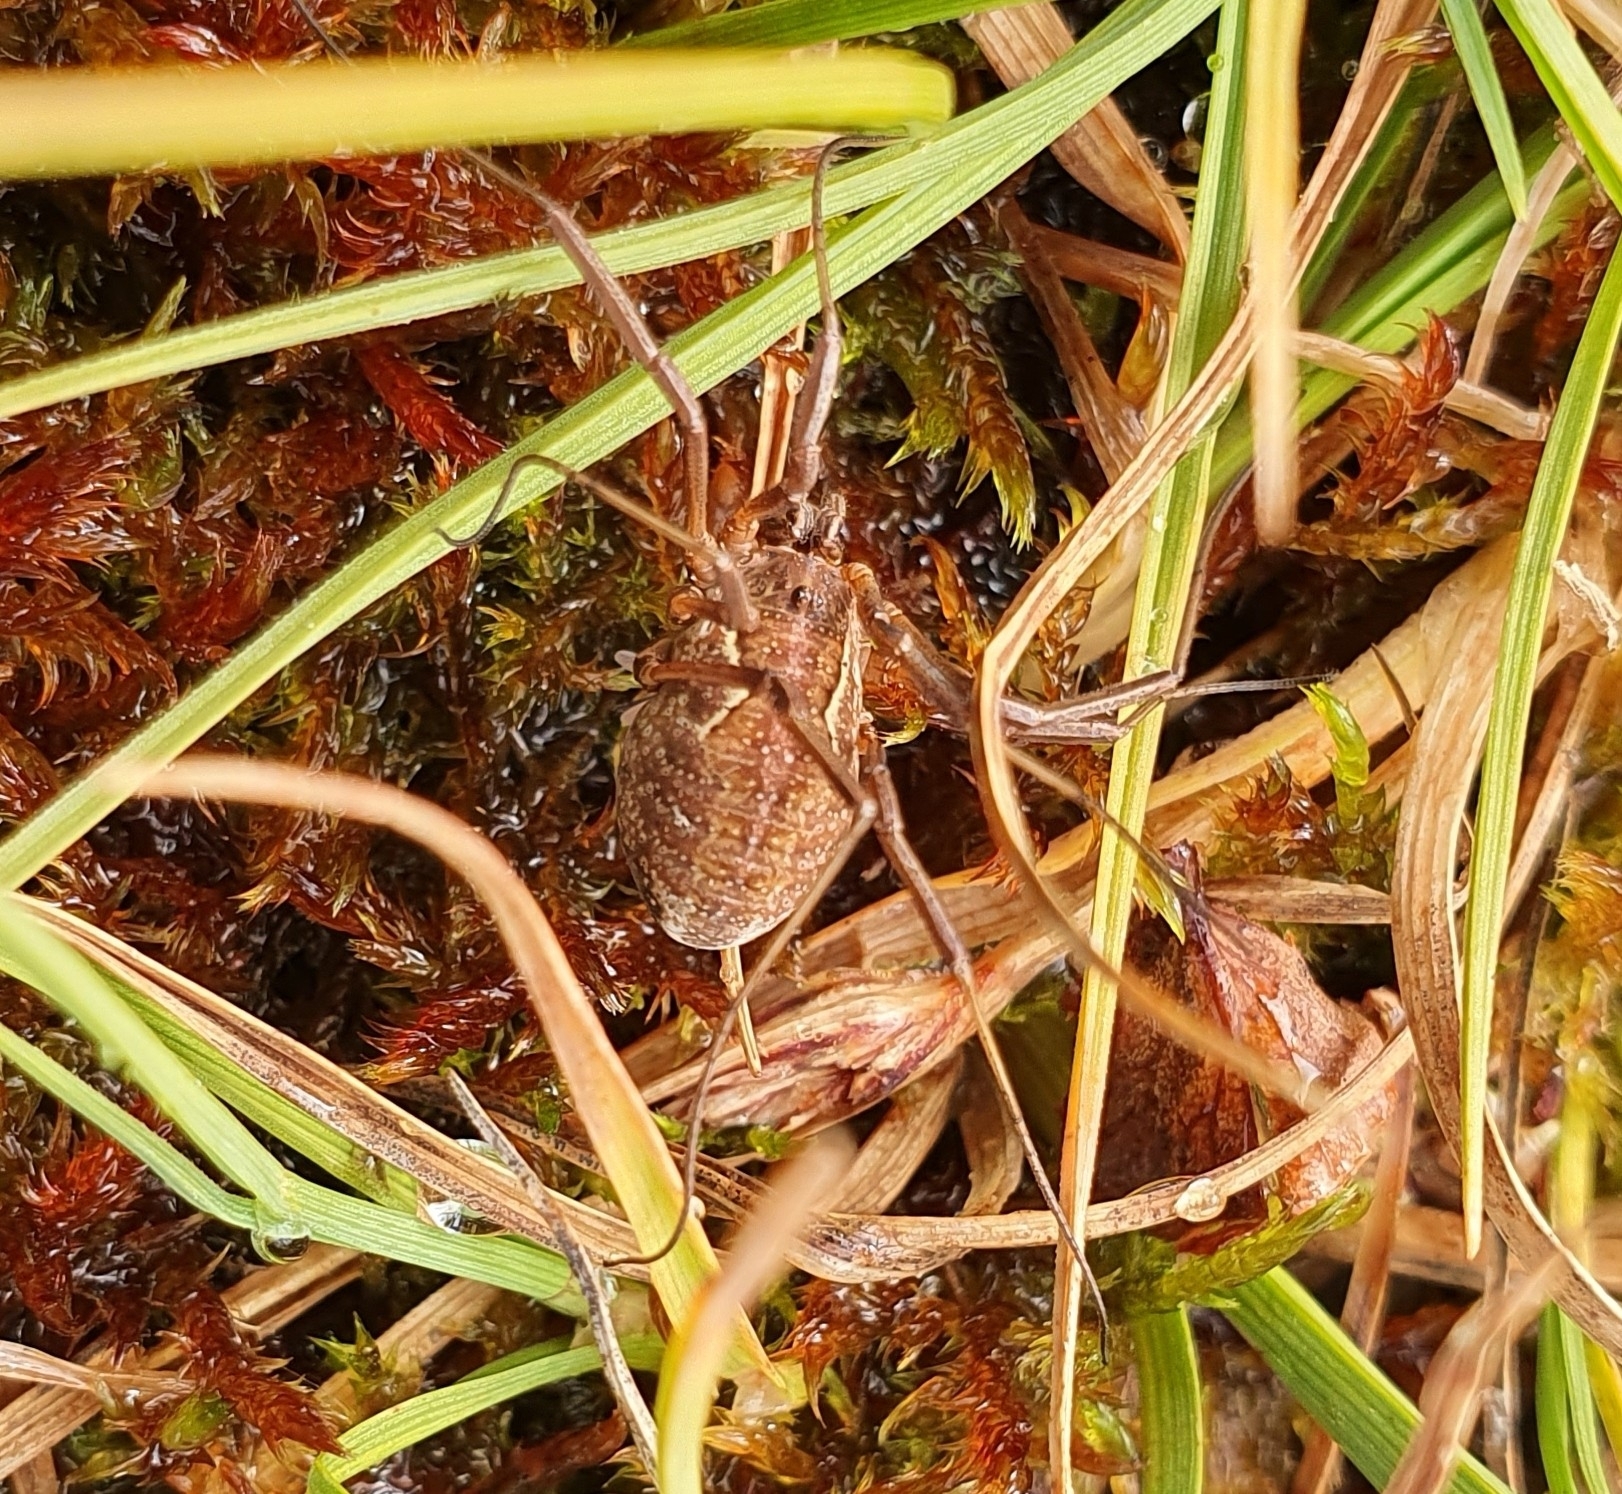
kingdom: Animalia
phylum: Arthropoda
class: Arachnida
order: Opiliones
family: Phalangiidae
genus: Mitopus
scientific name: Mitopus morio
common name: Saddleback harvestman
